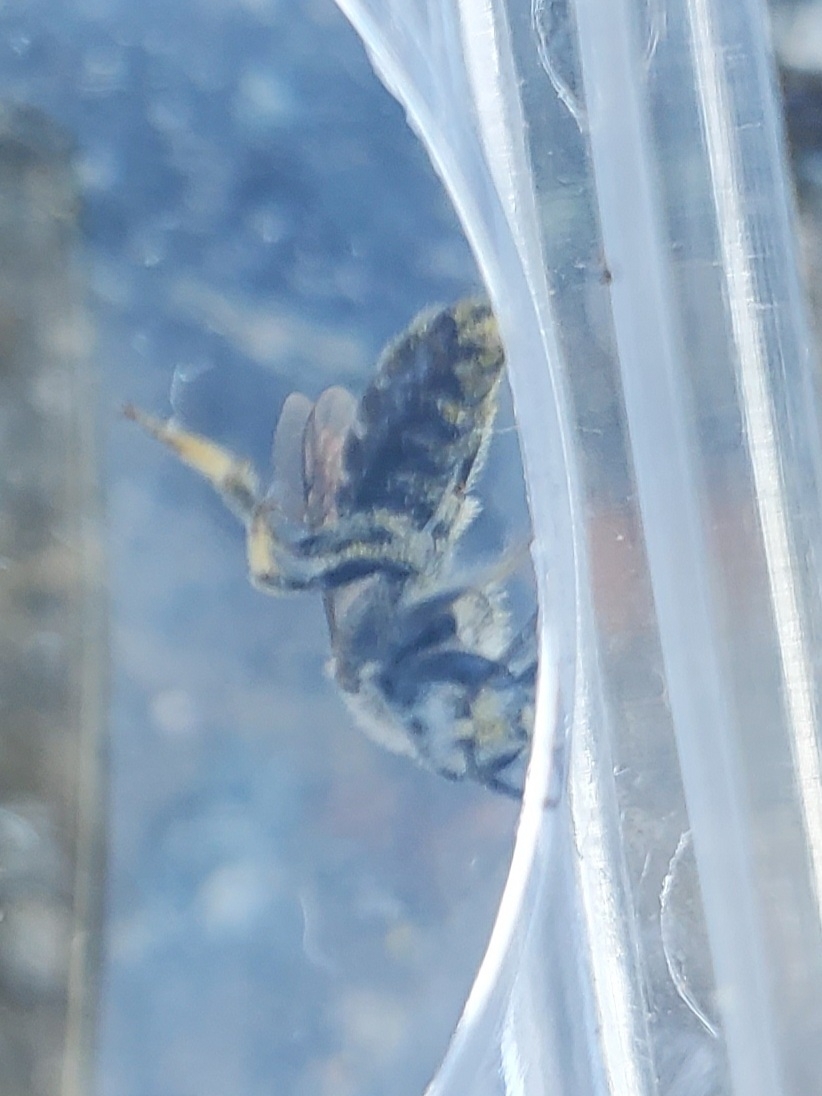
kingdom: Animalia
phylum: Arthropoda
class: Insecta
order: Hymenoptera
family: Halictidae
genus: Lasioglossum
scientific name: Lasioglossum leucozonium
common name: White-zoned furrow bee
